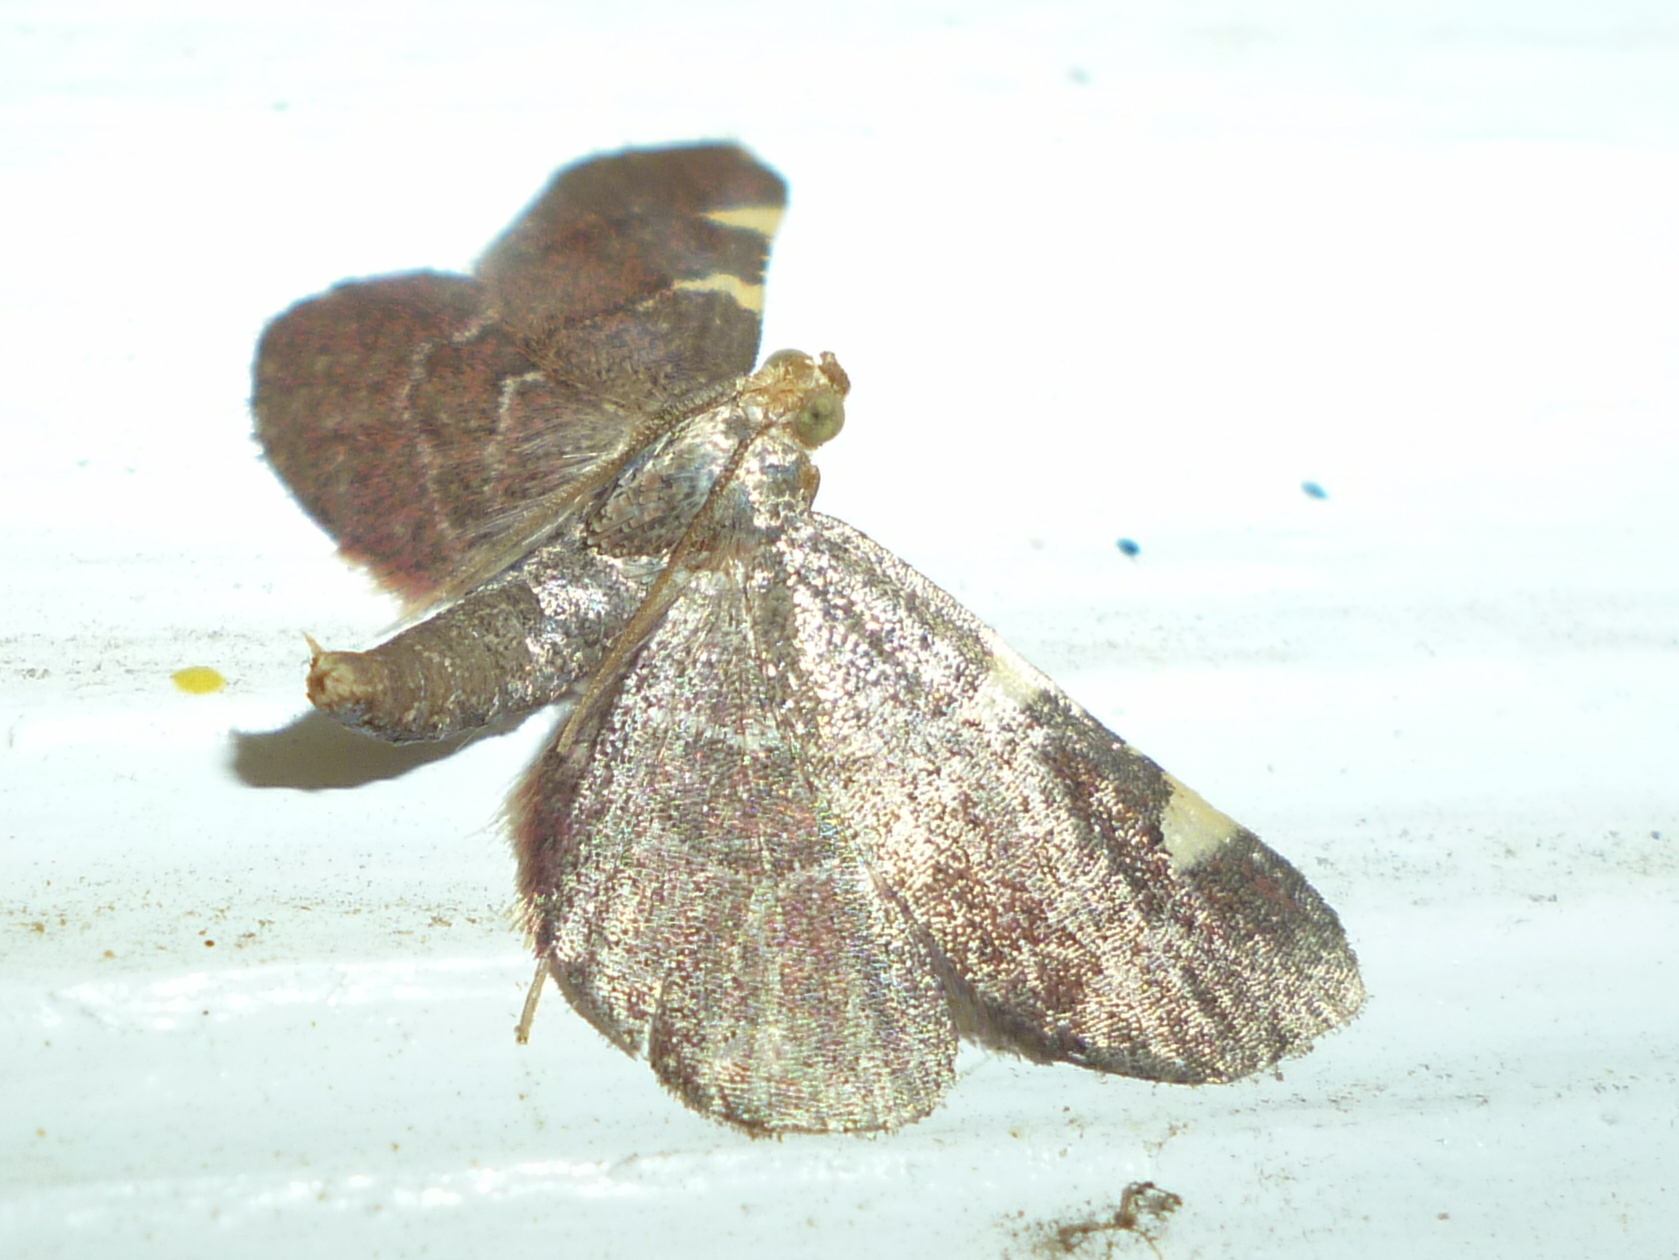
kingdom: Animalia
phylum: Arthropoda
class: Insecta
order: Lepidoptera
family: Pyralidae
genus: Hypsopygia
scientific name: Hypsopygia olinalis
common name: Yellow-fringed dolichomia moth
